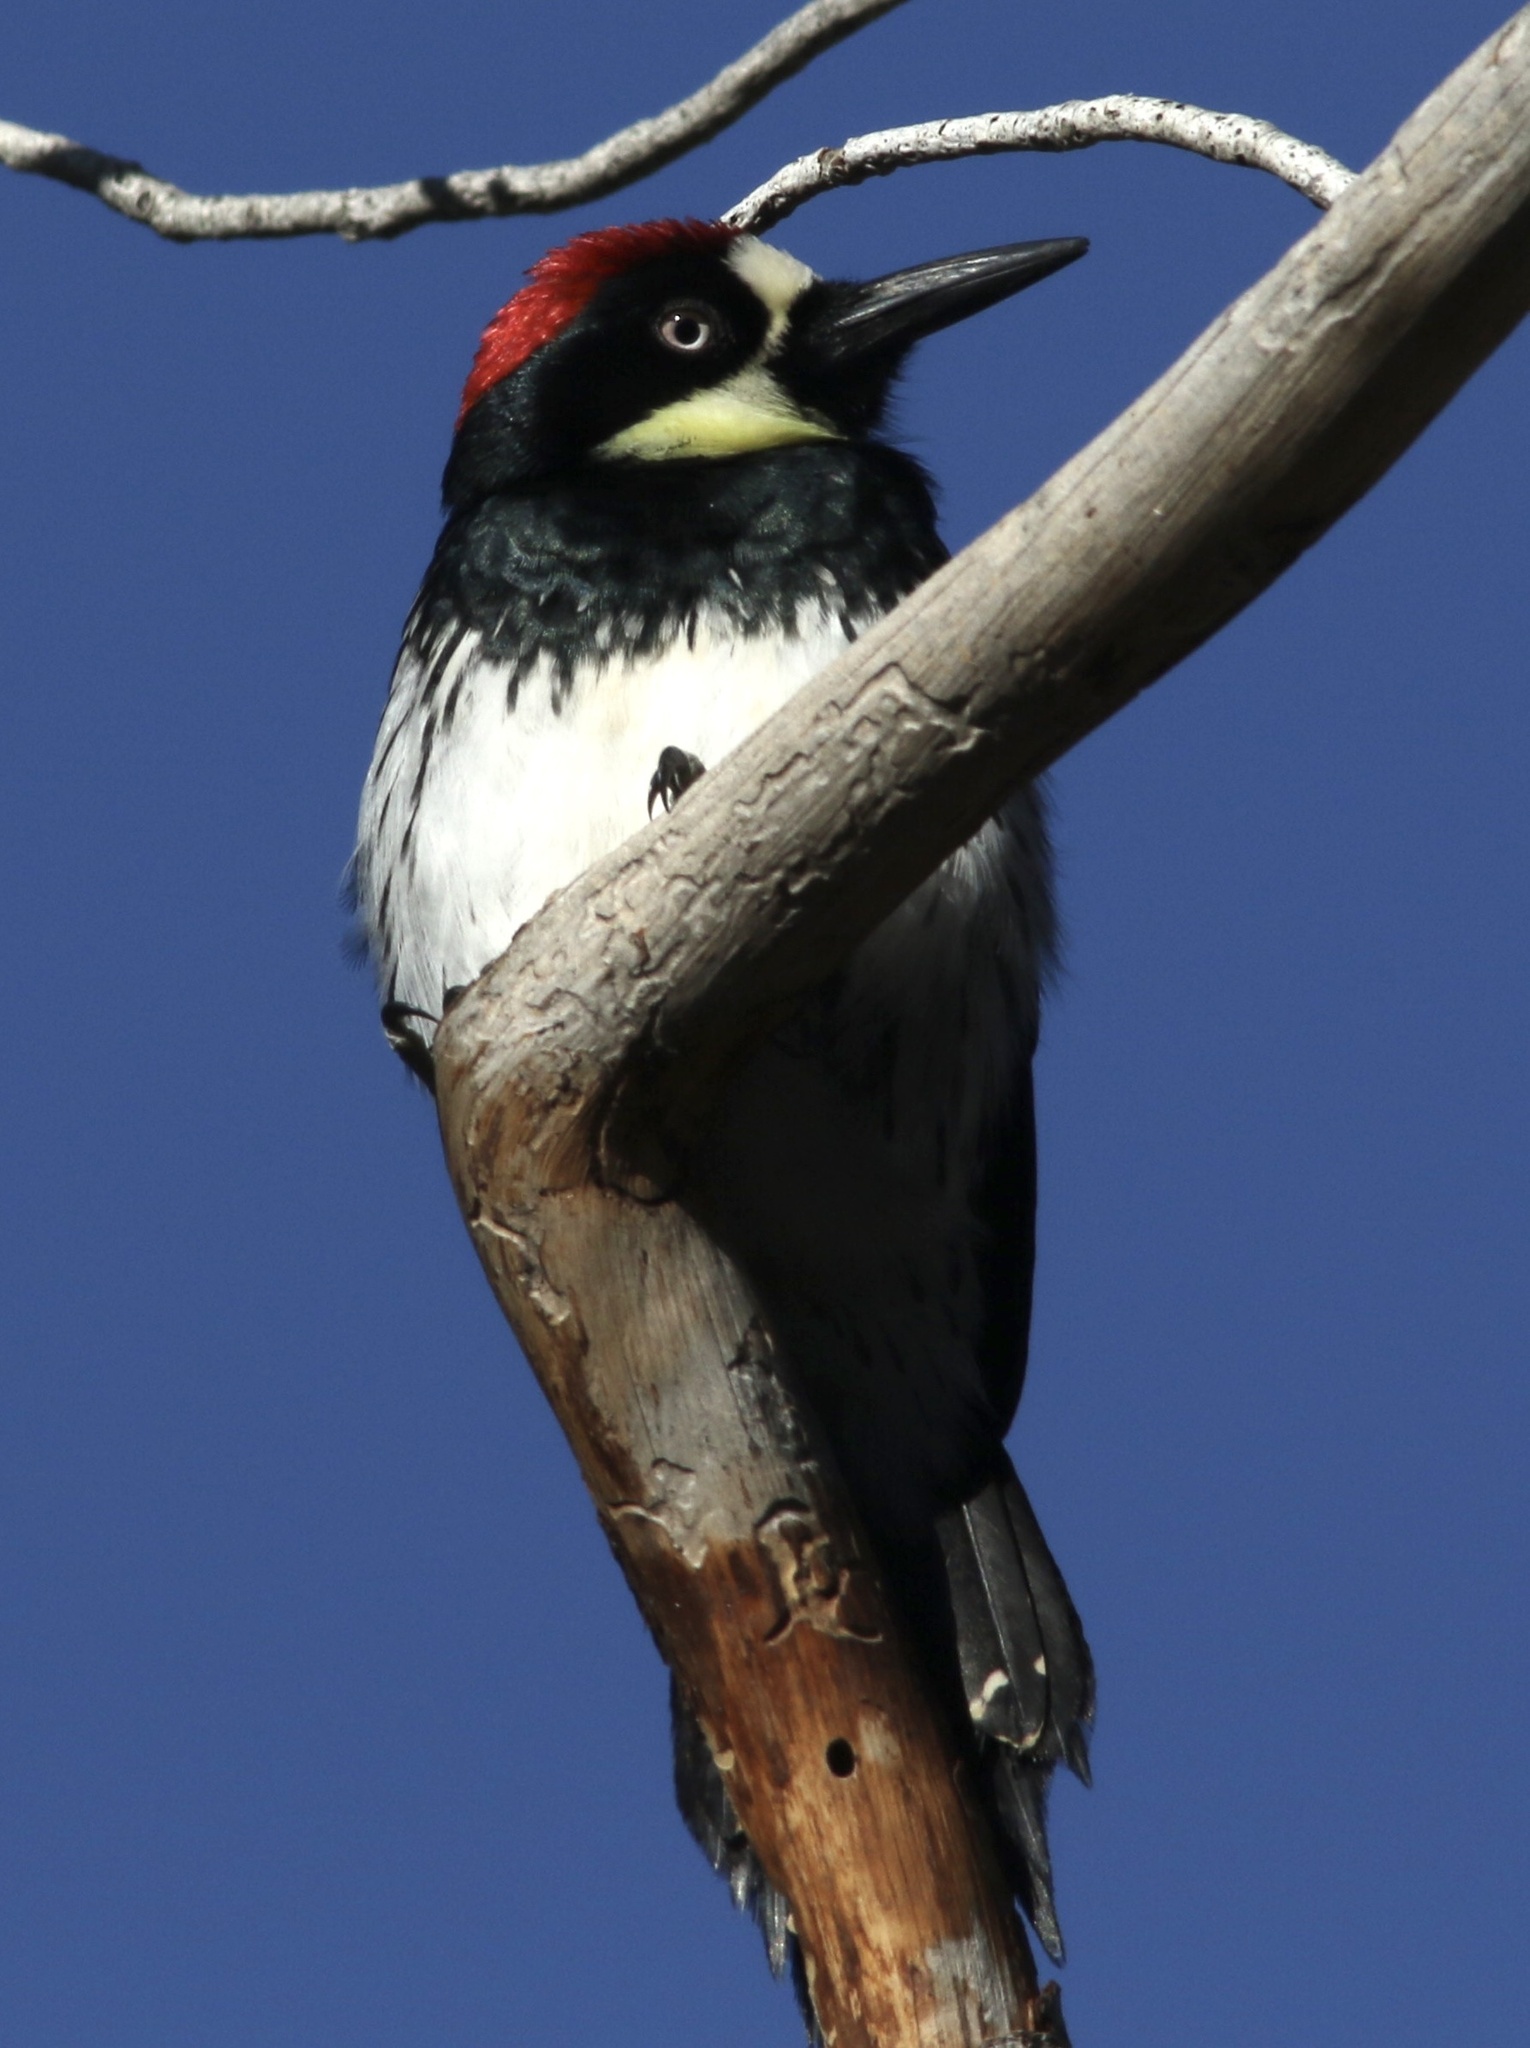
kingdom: Animalia
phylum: Chordata
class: Aves
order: Piciformes
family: Picidae
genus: Melanerpes
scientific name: Melanerpes formicivorus
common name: Acorn woodpecker
